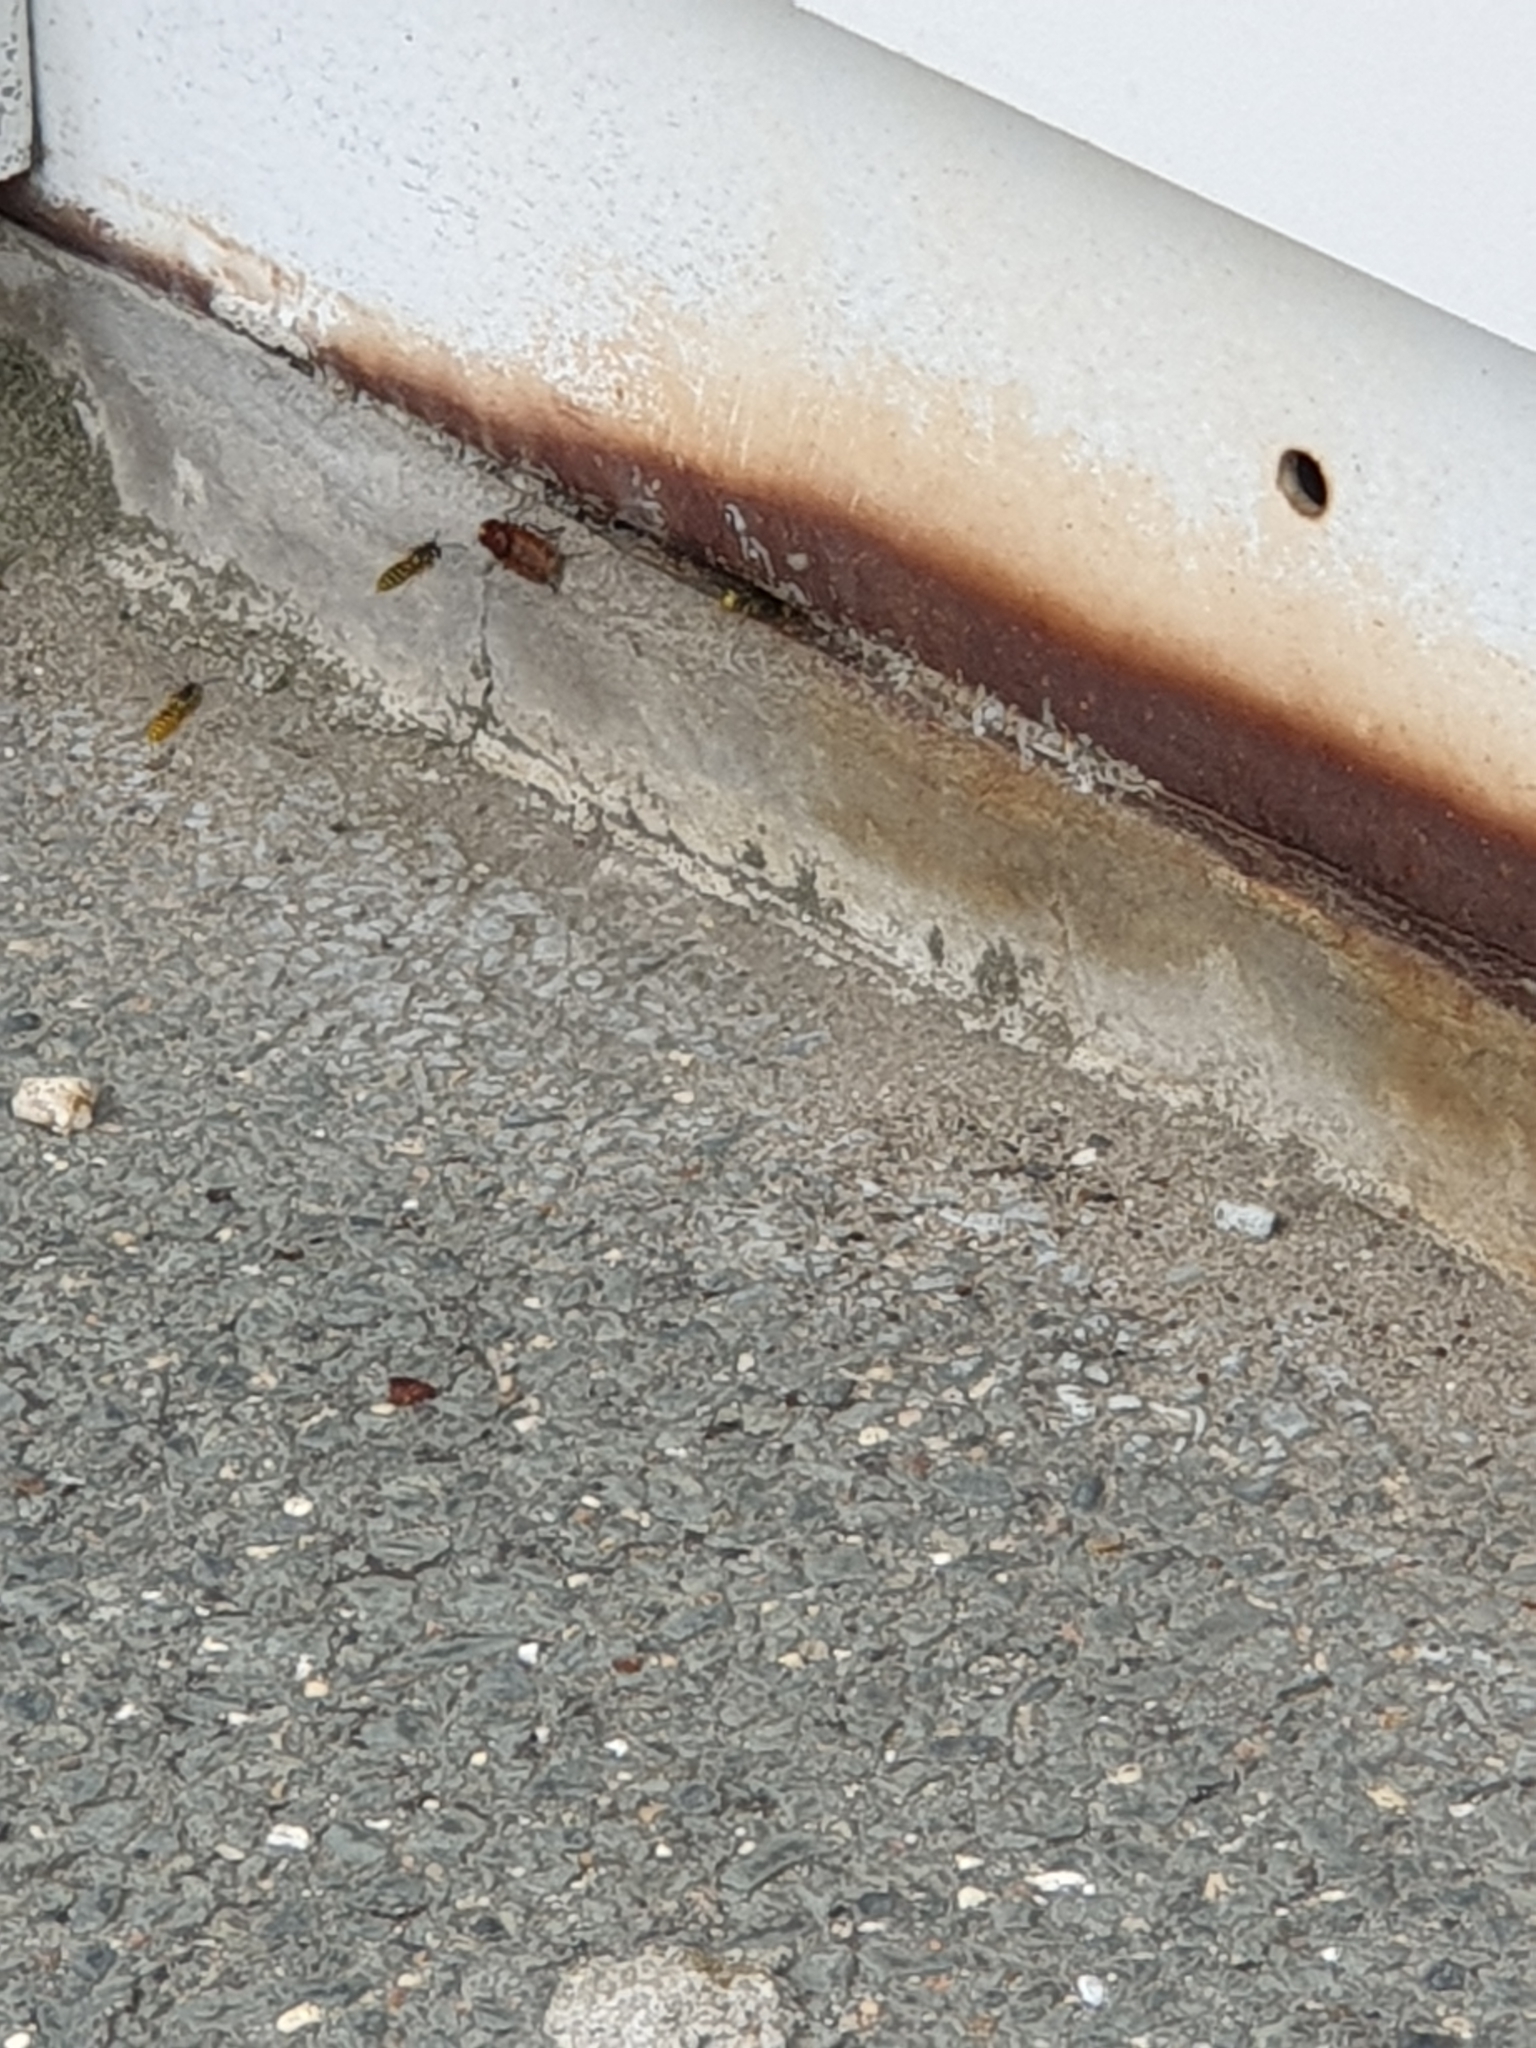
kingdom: Animalia
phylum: Arthropoda
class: Insecta
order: Hymenoptera
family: Vespidae
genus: Vespula
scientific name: Vespula germanica
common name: German wasp
